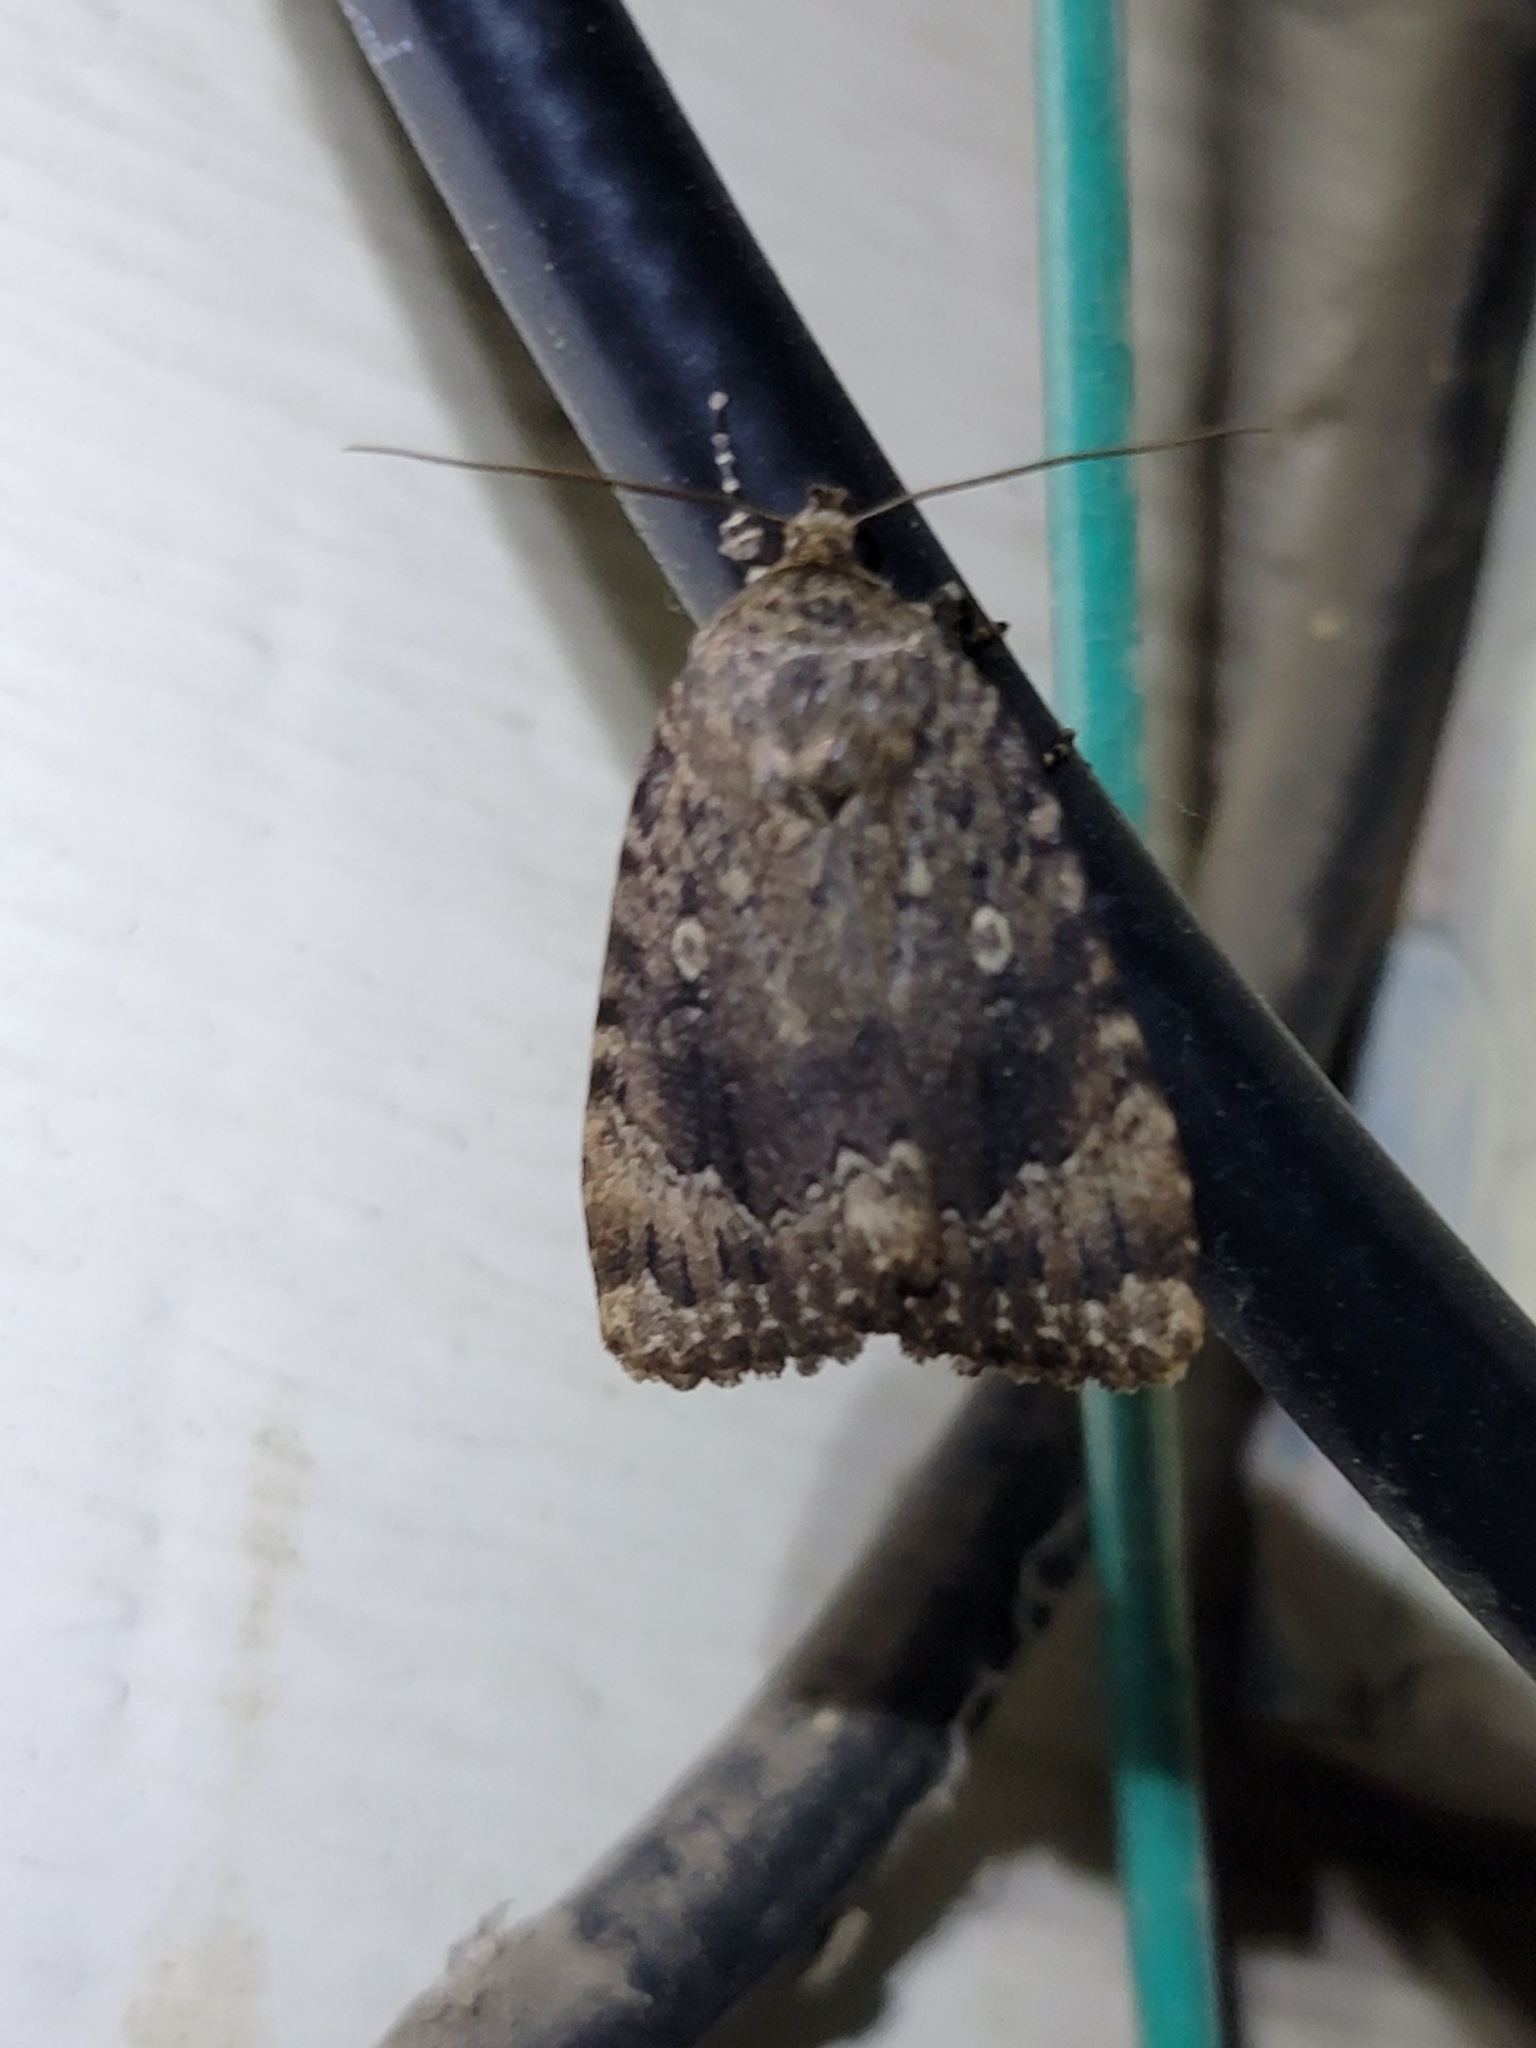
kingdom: Animalia
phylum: Arthropoda
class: Insecta
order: Lepidoptera
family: Noctuidae
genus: Amphipyra
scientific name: Amphipyra pyramidoides
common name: American copper underwing
